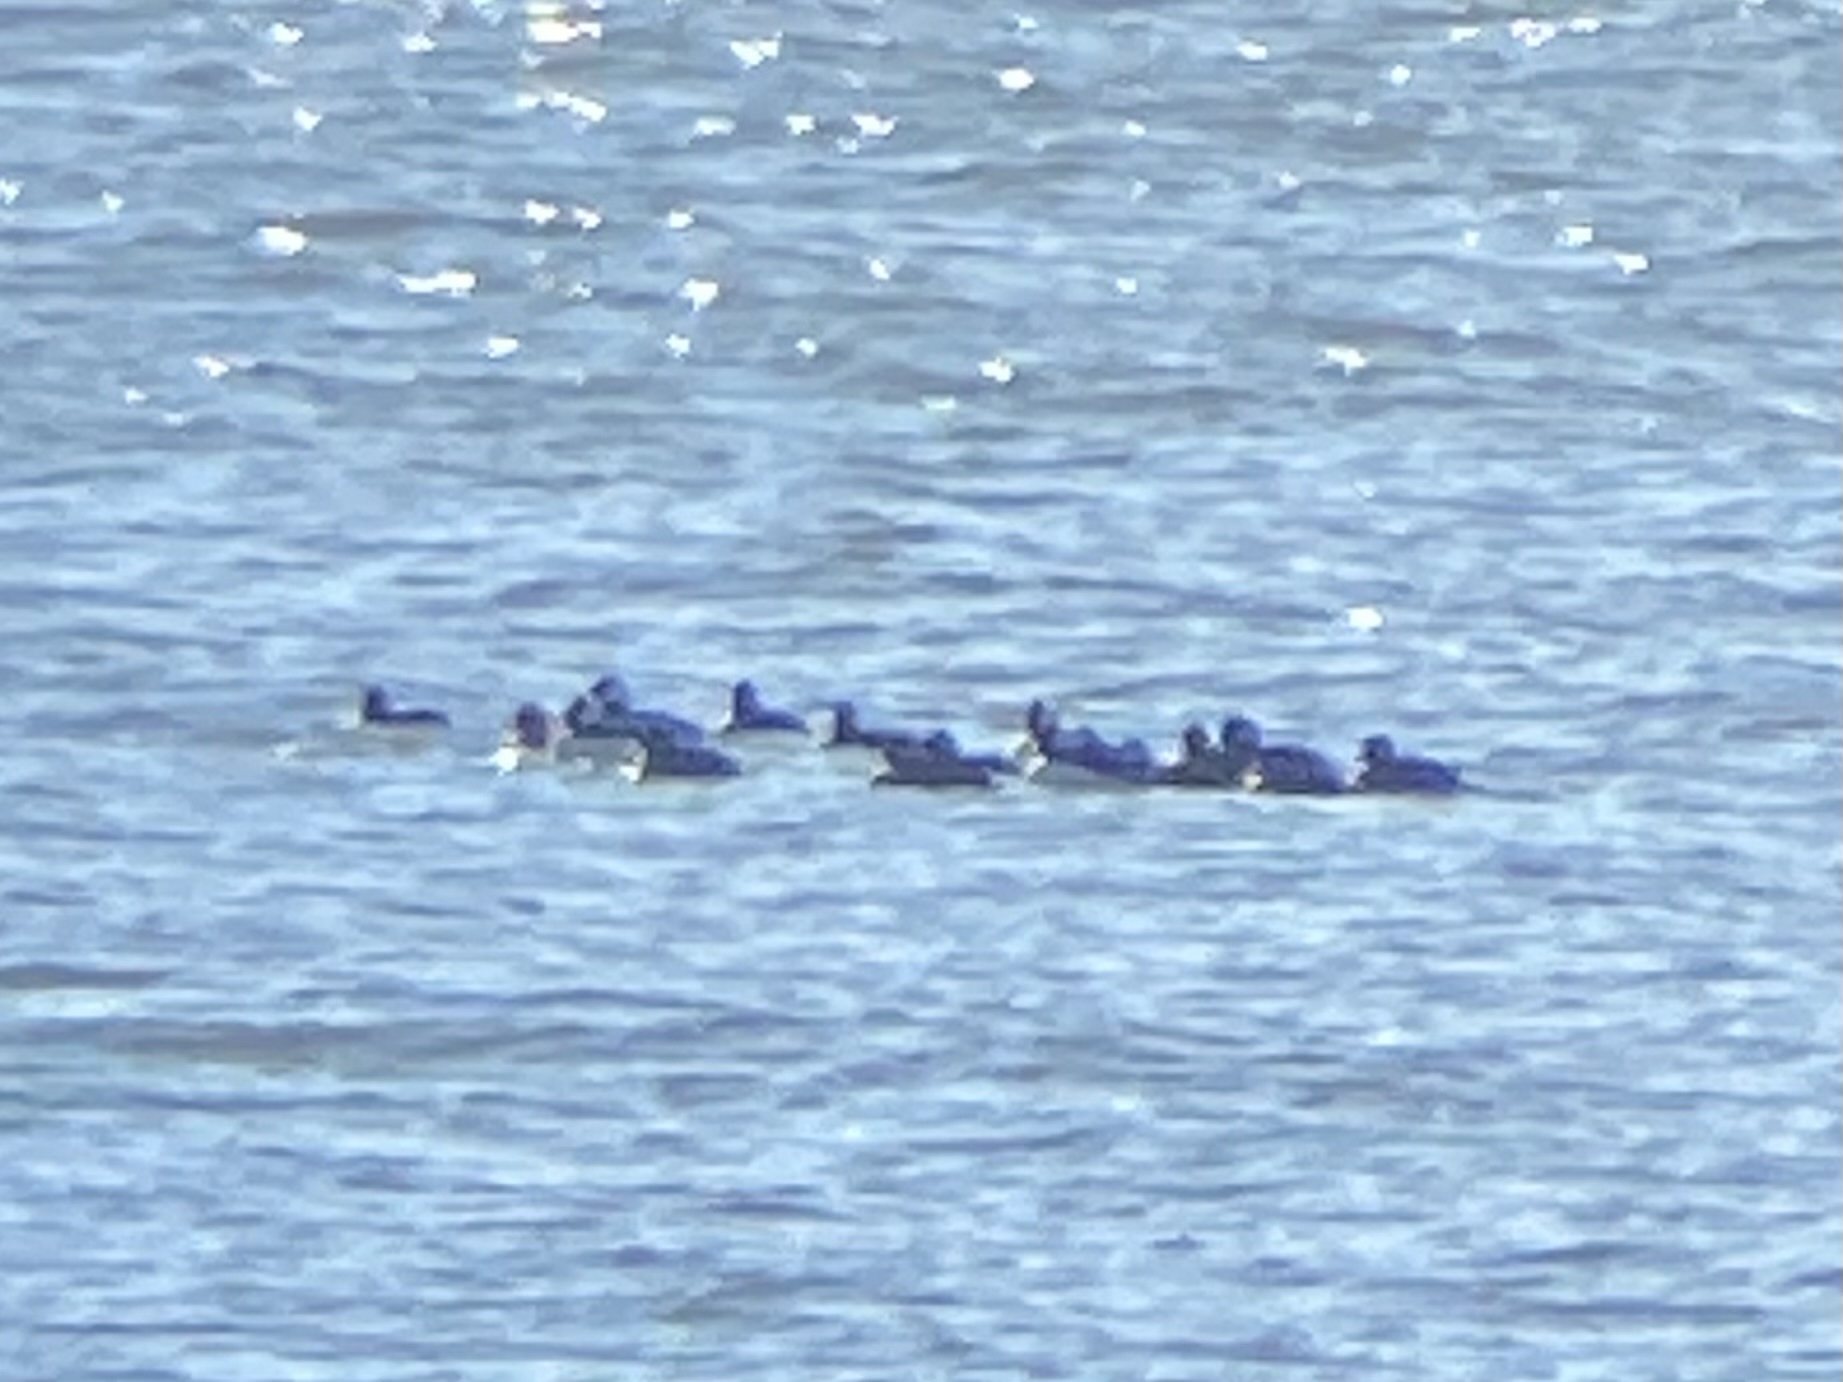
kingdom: Animalia
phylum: Chordata
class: Aves
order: Anseriformes
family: Anatidae
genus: Bucephala
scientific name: Bucephala albeola
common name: Bufflehead
